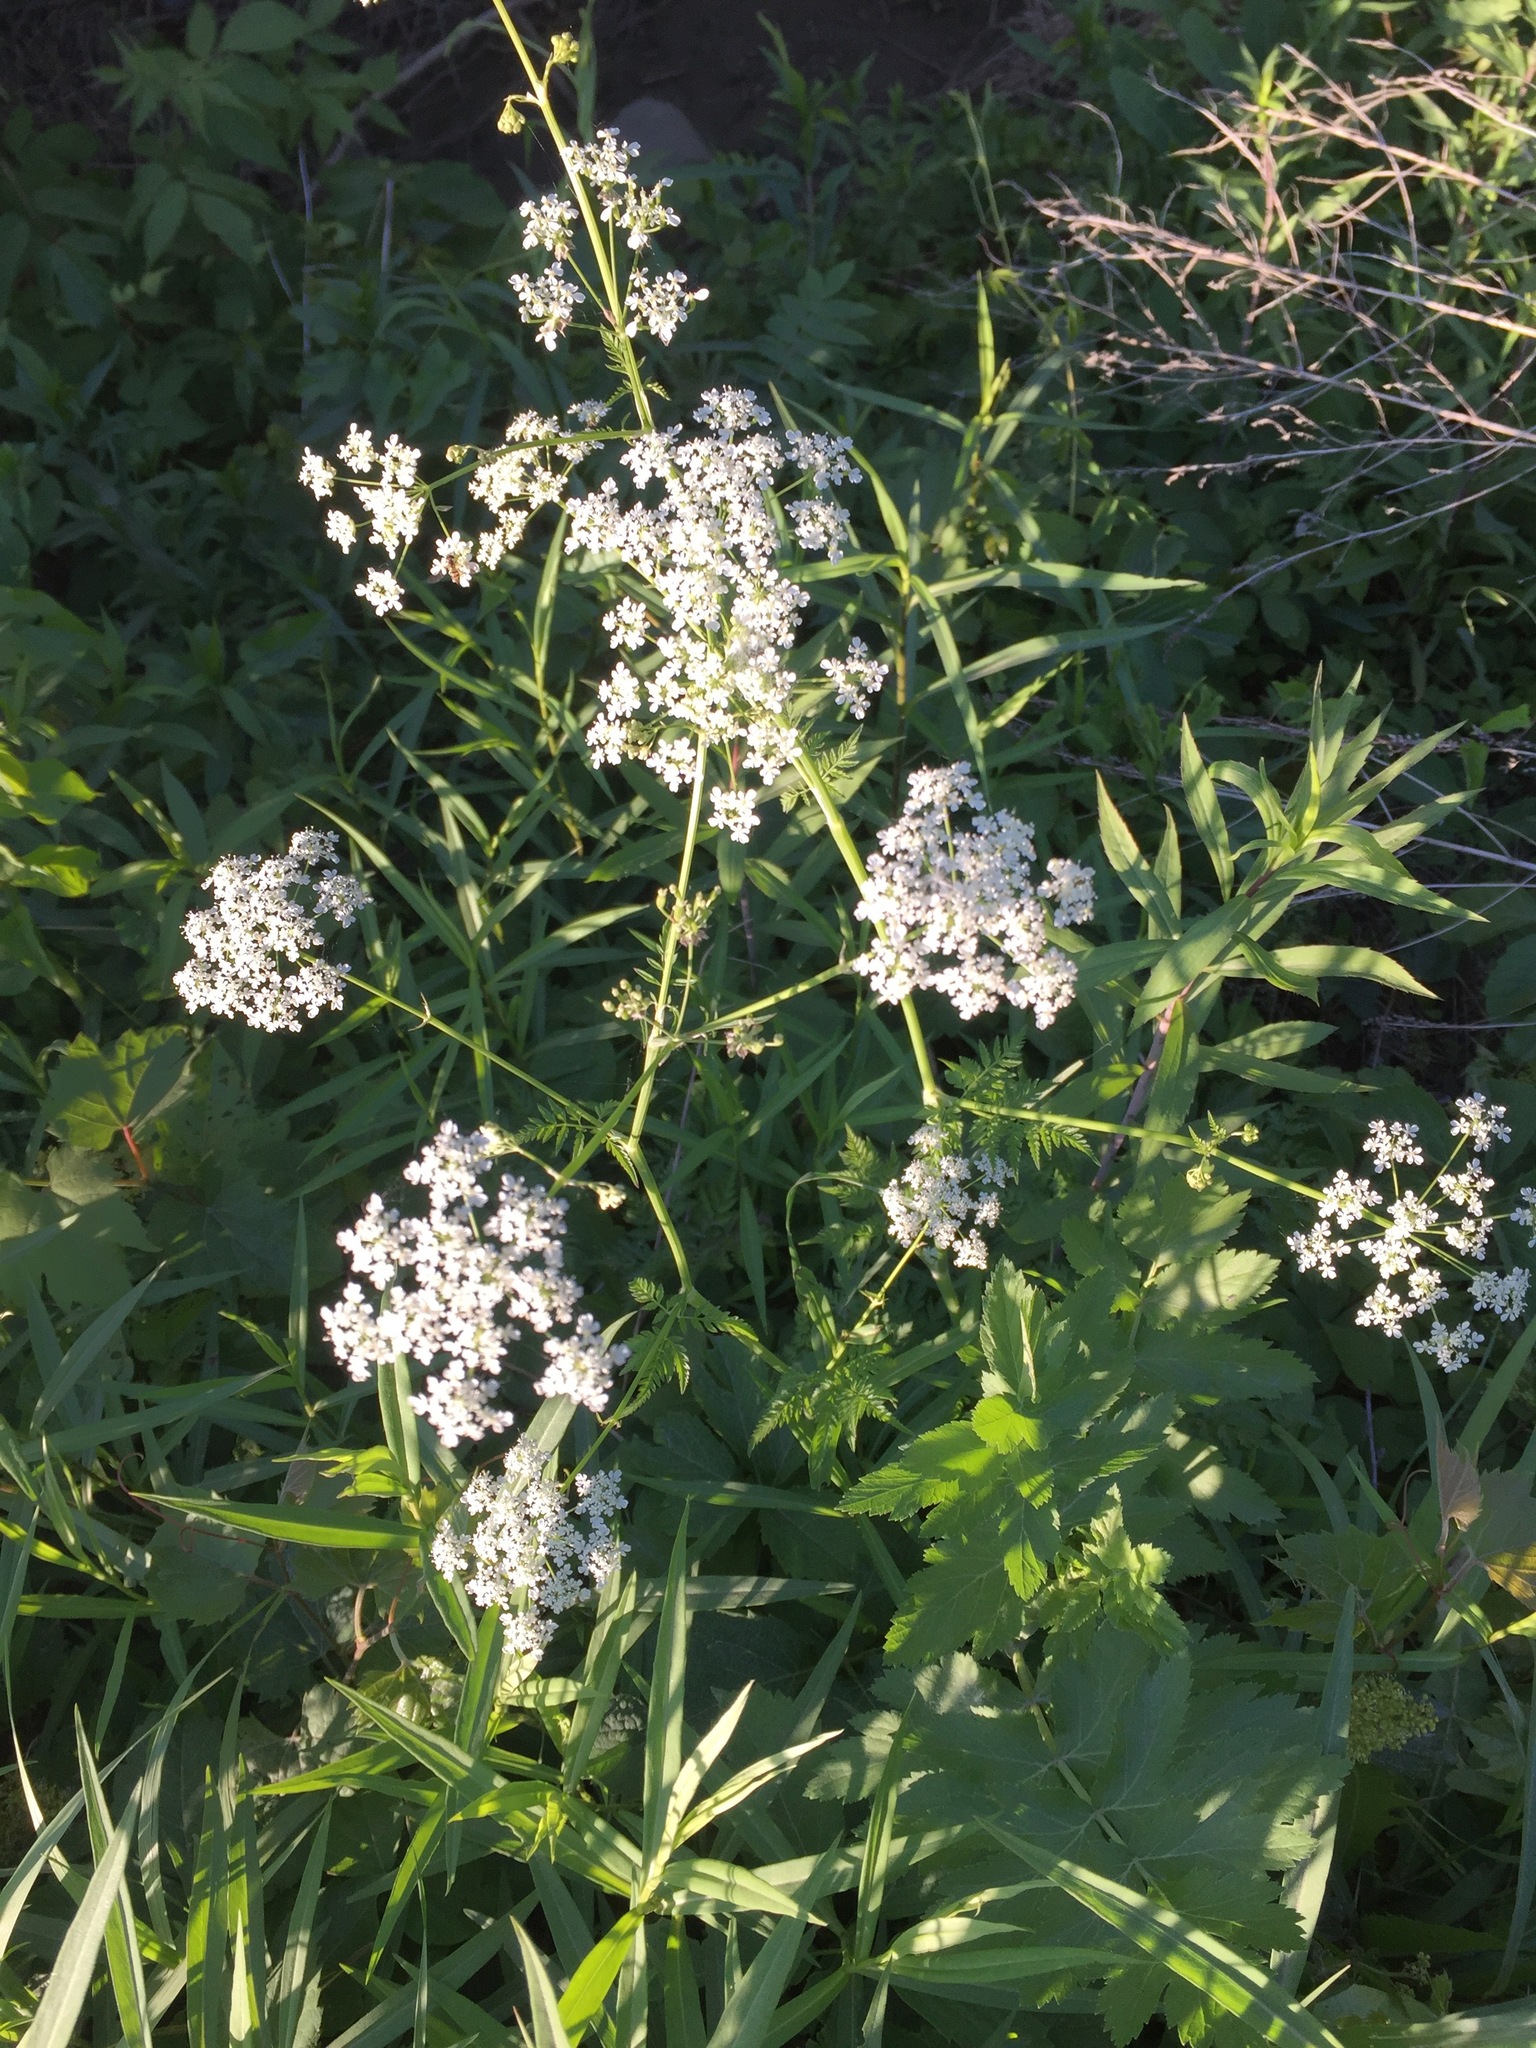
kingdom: Plantae
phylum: Tracheophyta
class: Magnoliopsida
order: Apiales
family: Apiaceae
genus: Anthriscus
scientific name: Anthriscus sylvestris
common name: Cow parsley
